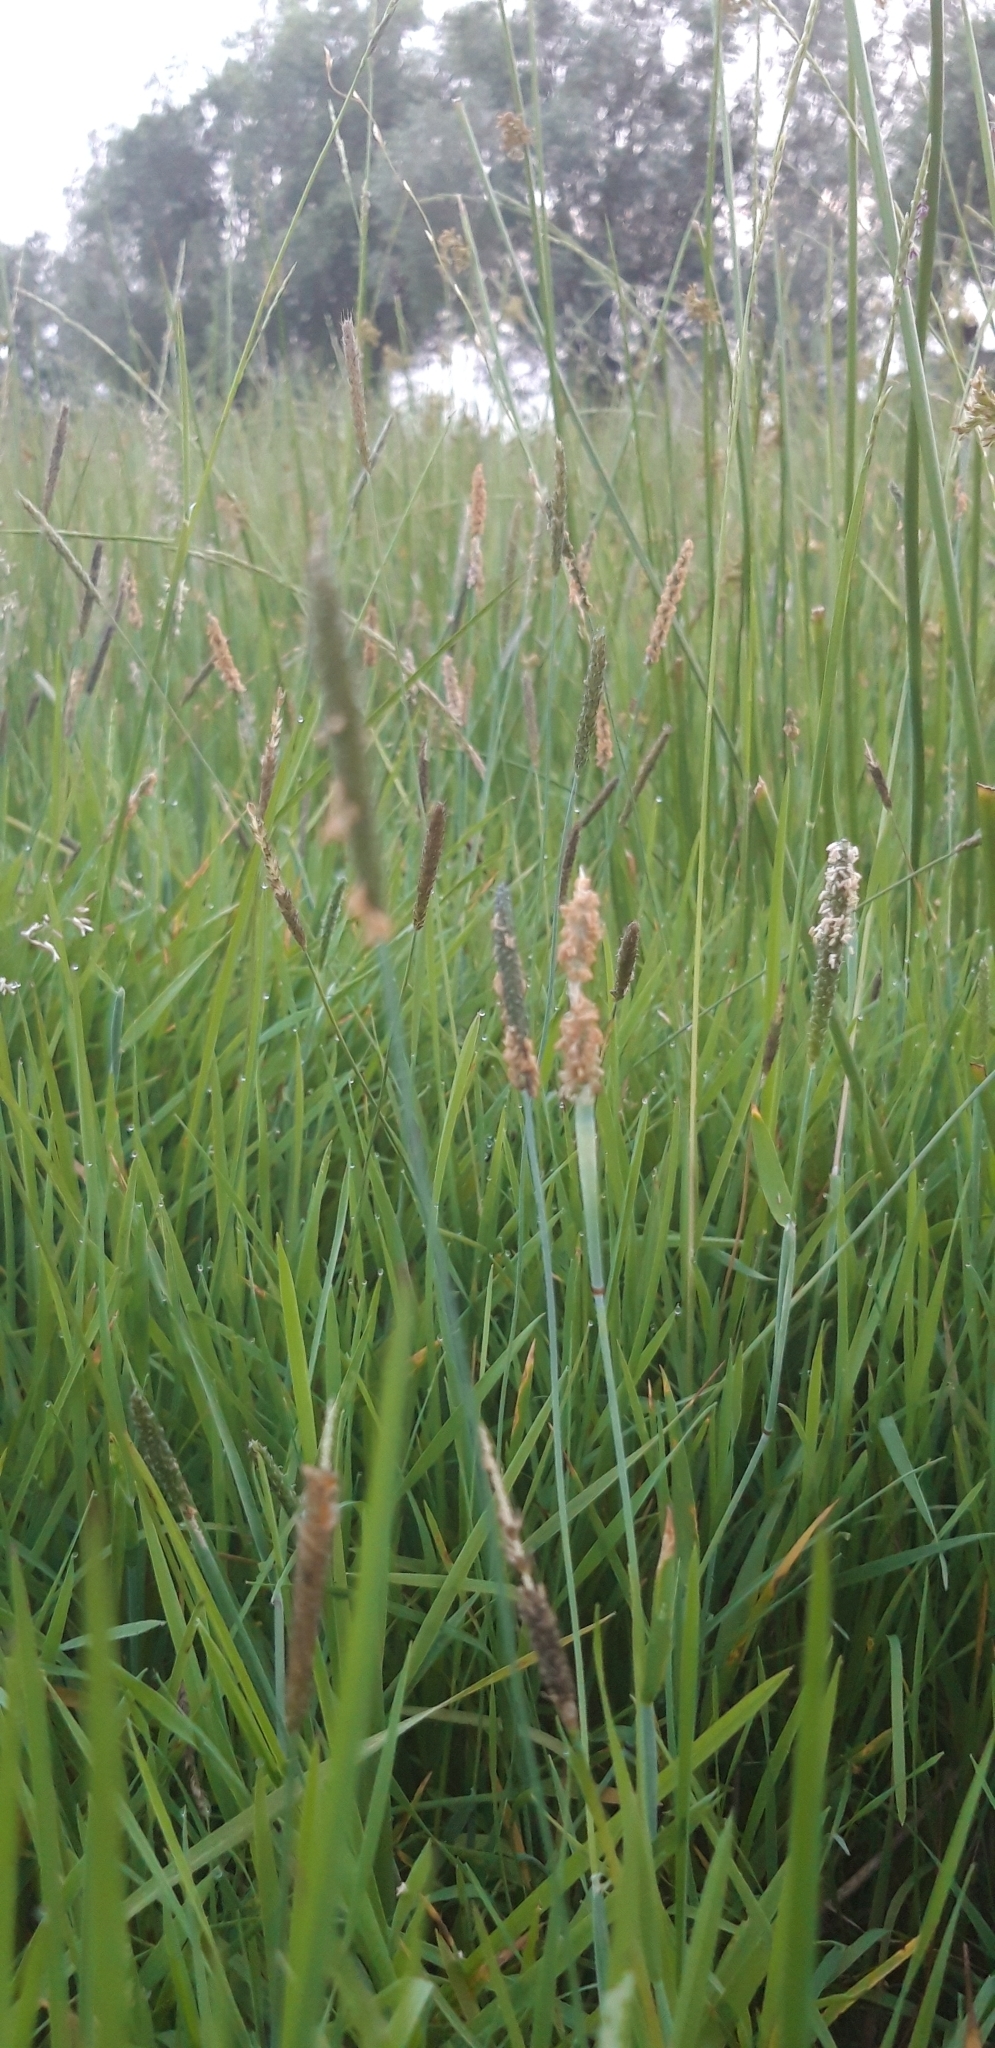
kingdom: Plantae
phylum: Tracheophyta
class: Liliopsida
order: Poales
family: Poaceae
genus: Alopecurus
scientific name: Alopecurus geniculatus
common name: Water foxtail
